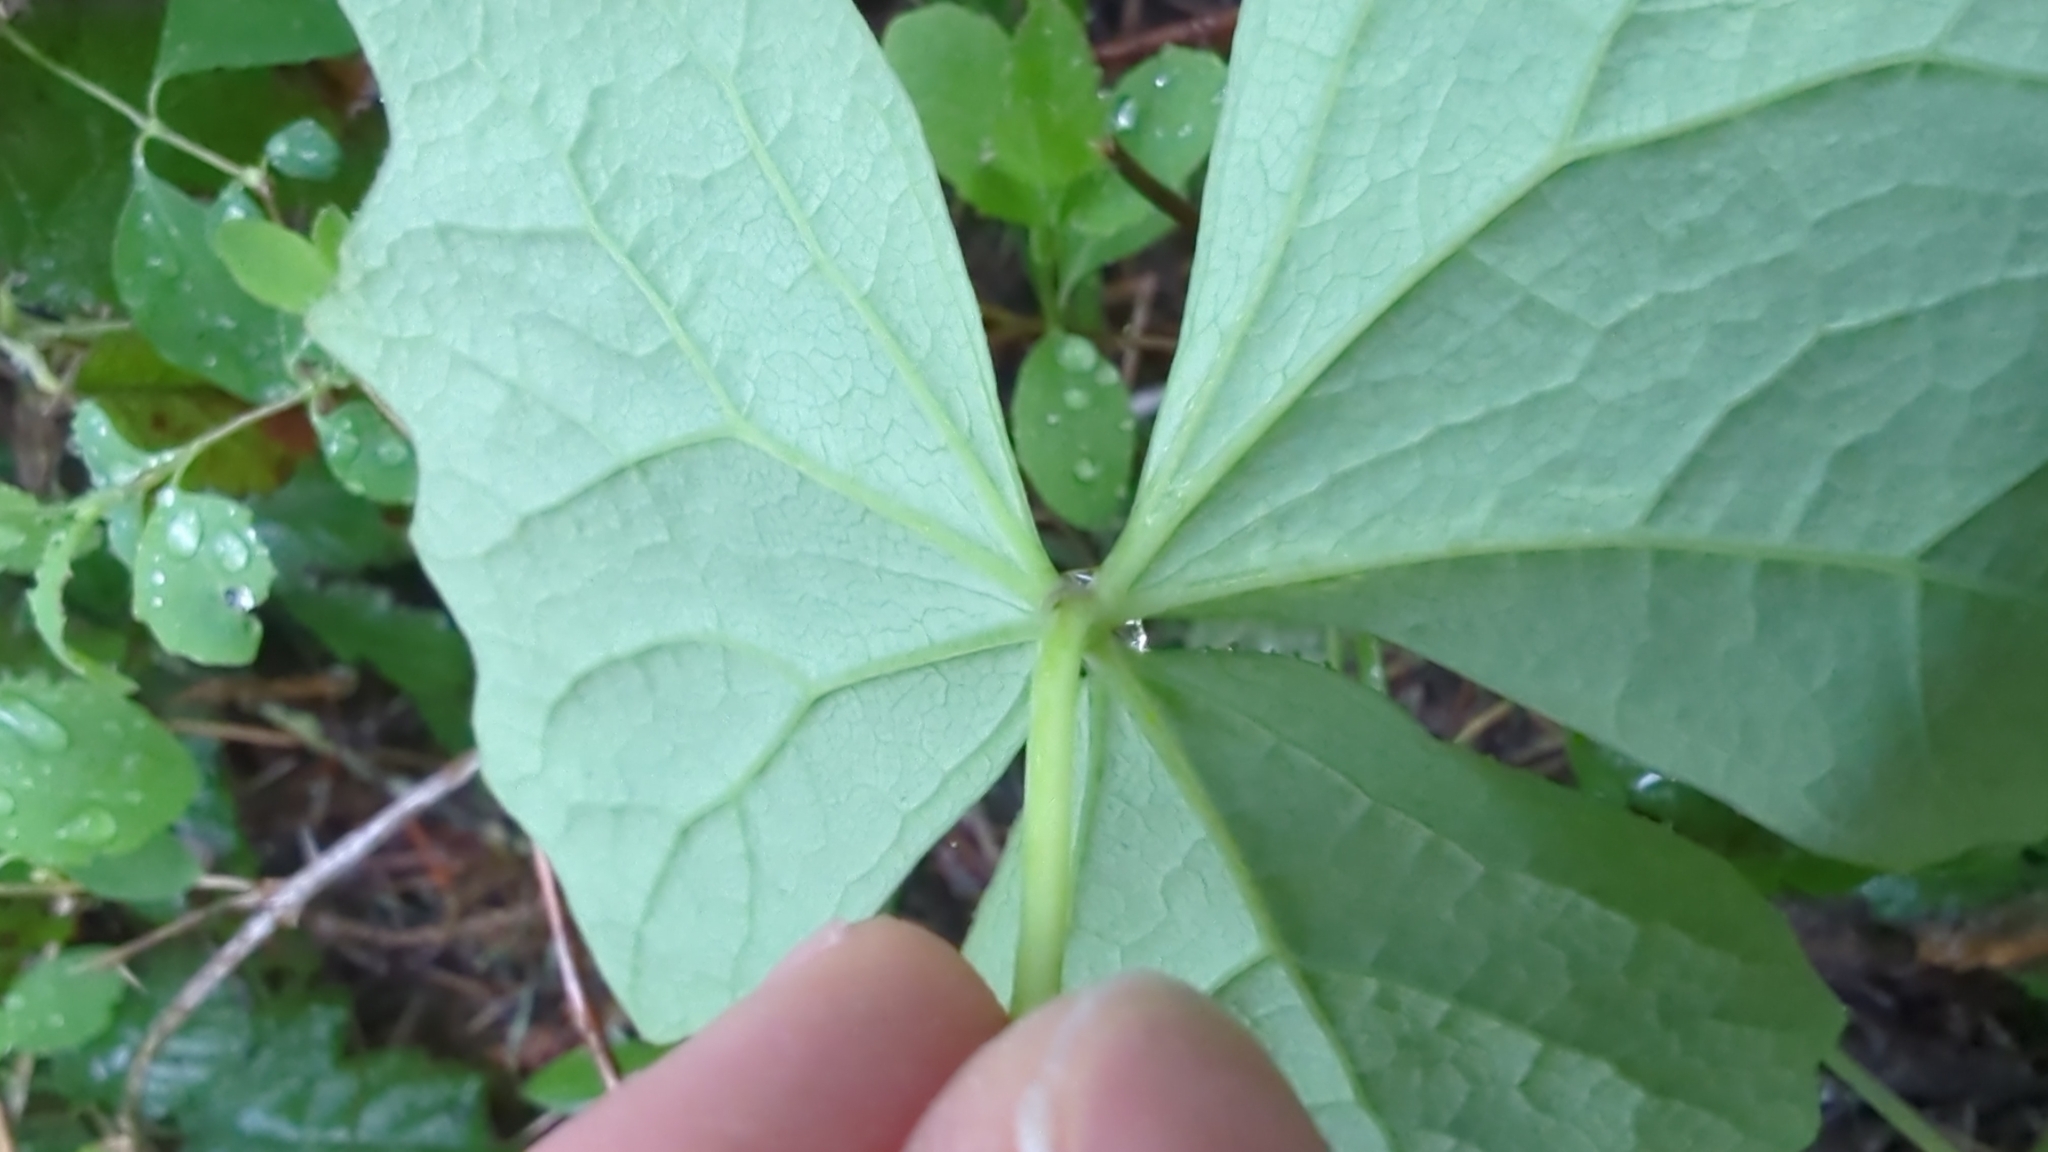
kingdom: Plantae
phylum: Tracheophyta
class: Magnoliopsida
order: Ranunculales
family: Berberidaceae
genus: Achlys
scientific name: Achlys triphylla
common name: Vanilla-leaf
